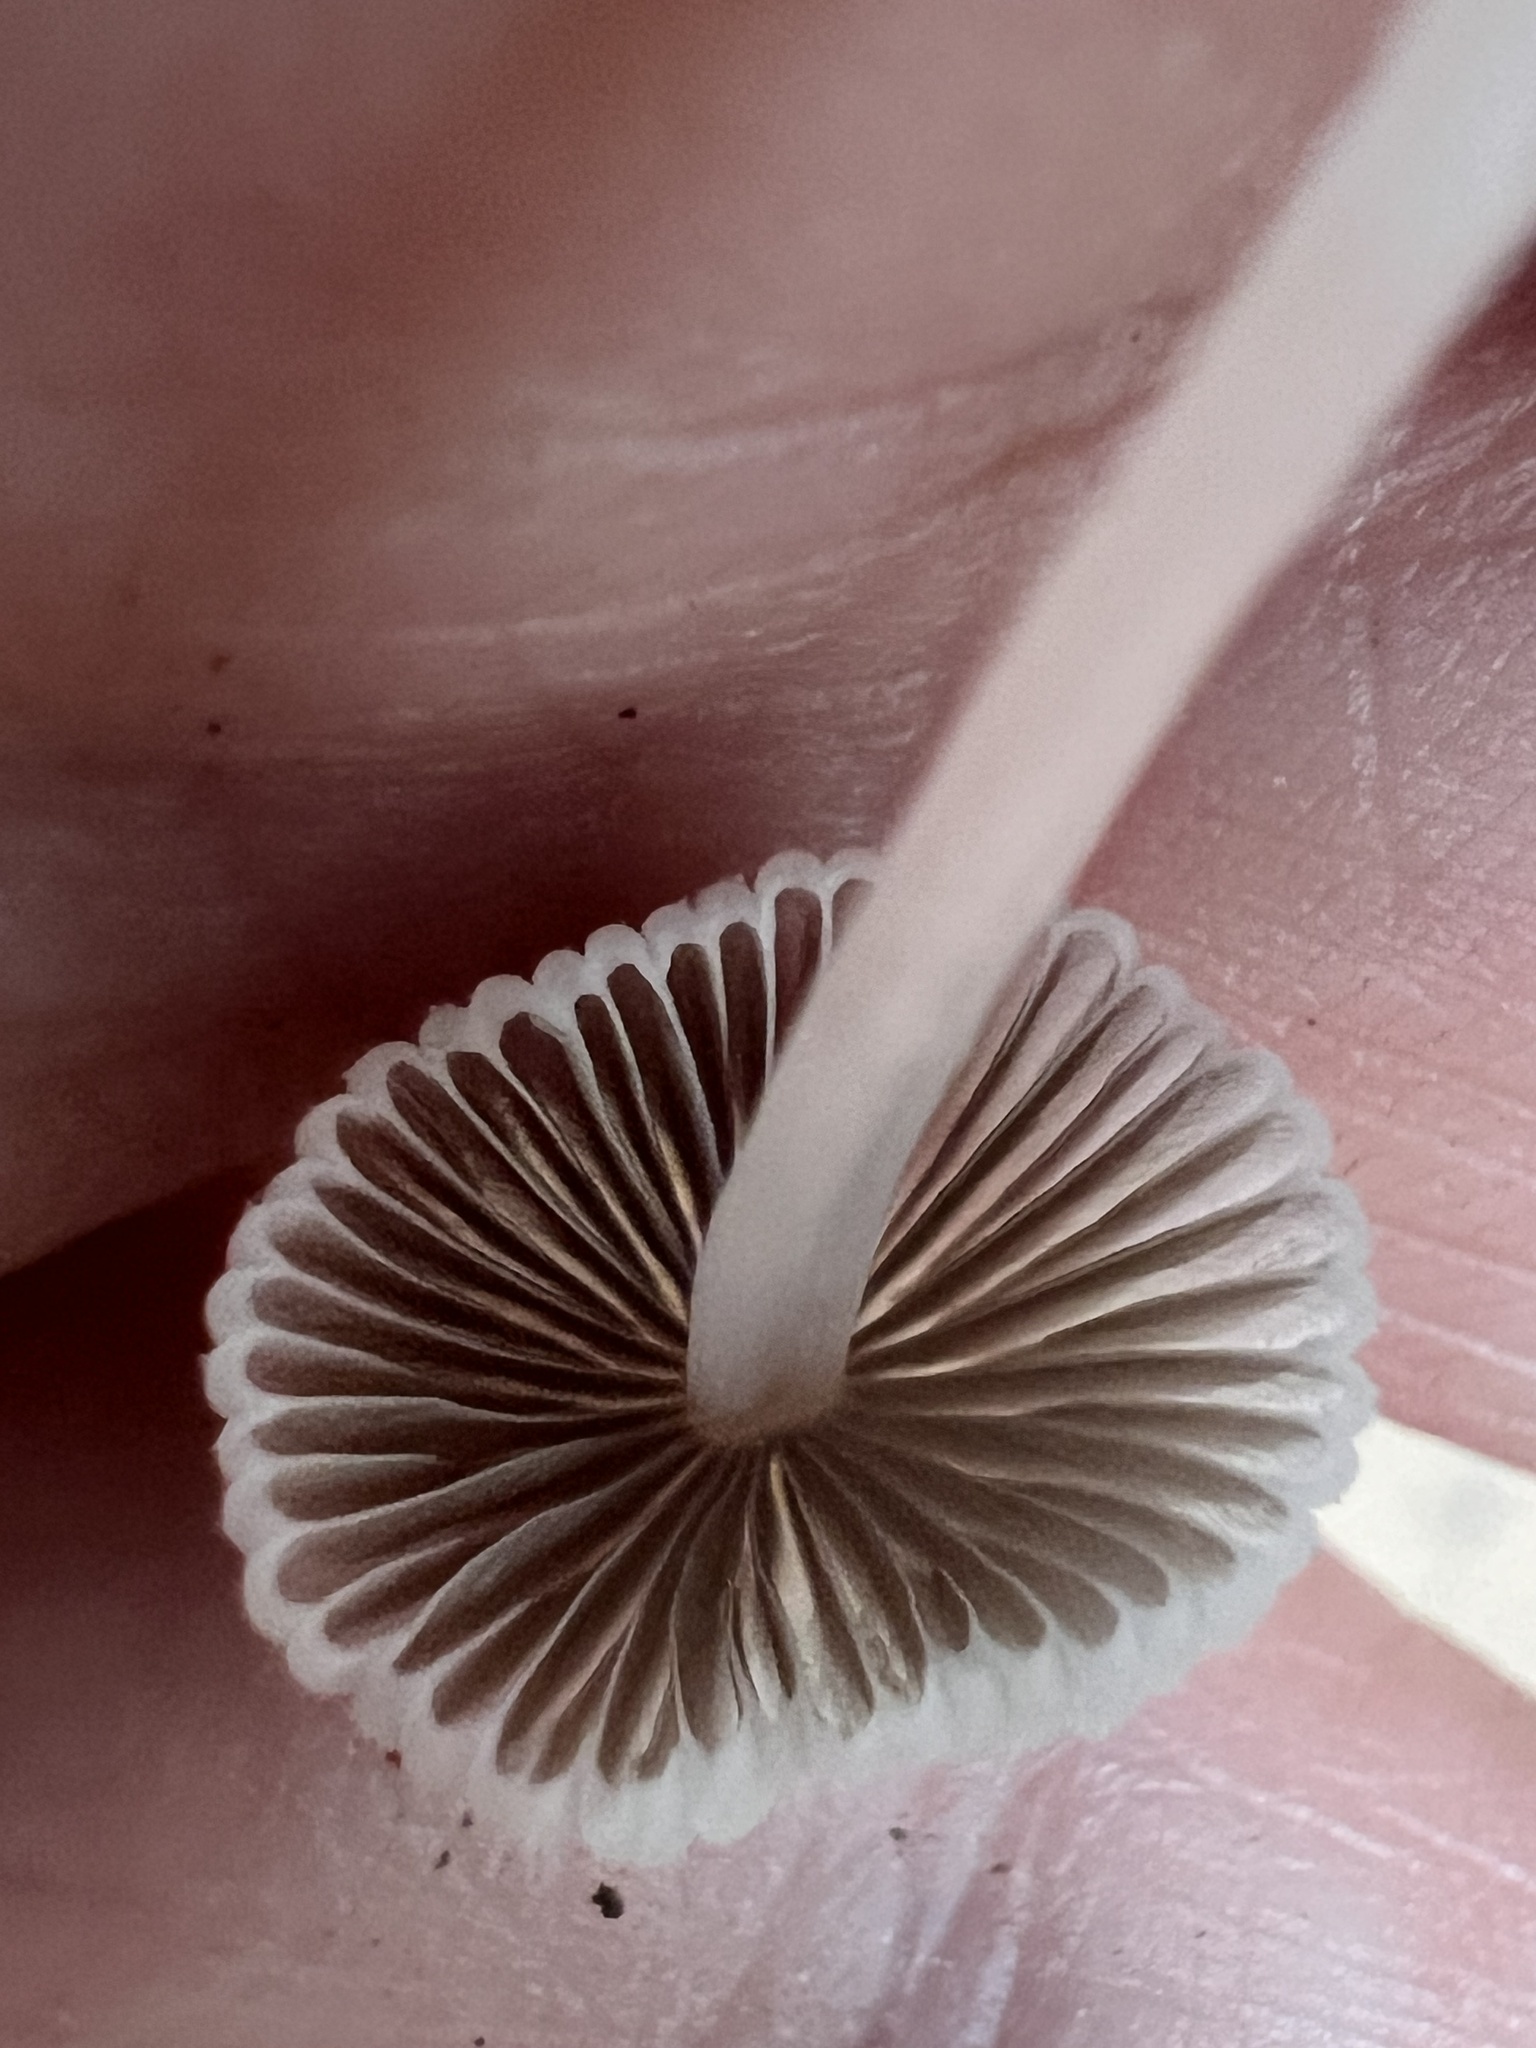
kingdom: Fungi
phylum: Basidiomycota
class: Agaricomycetes
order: Agaricales
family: Psathyrellaceae
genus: Coprinellus
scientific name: Coprinellus disseminatus
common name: Fairies' bonnets
